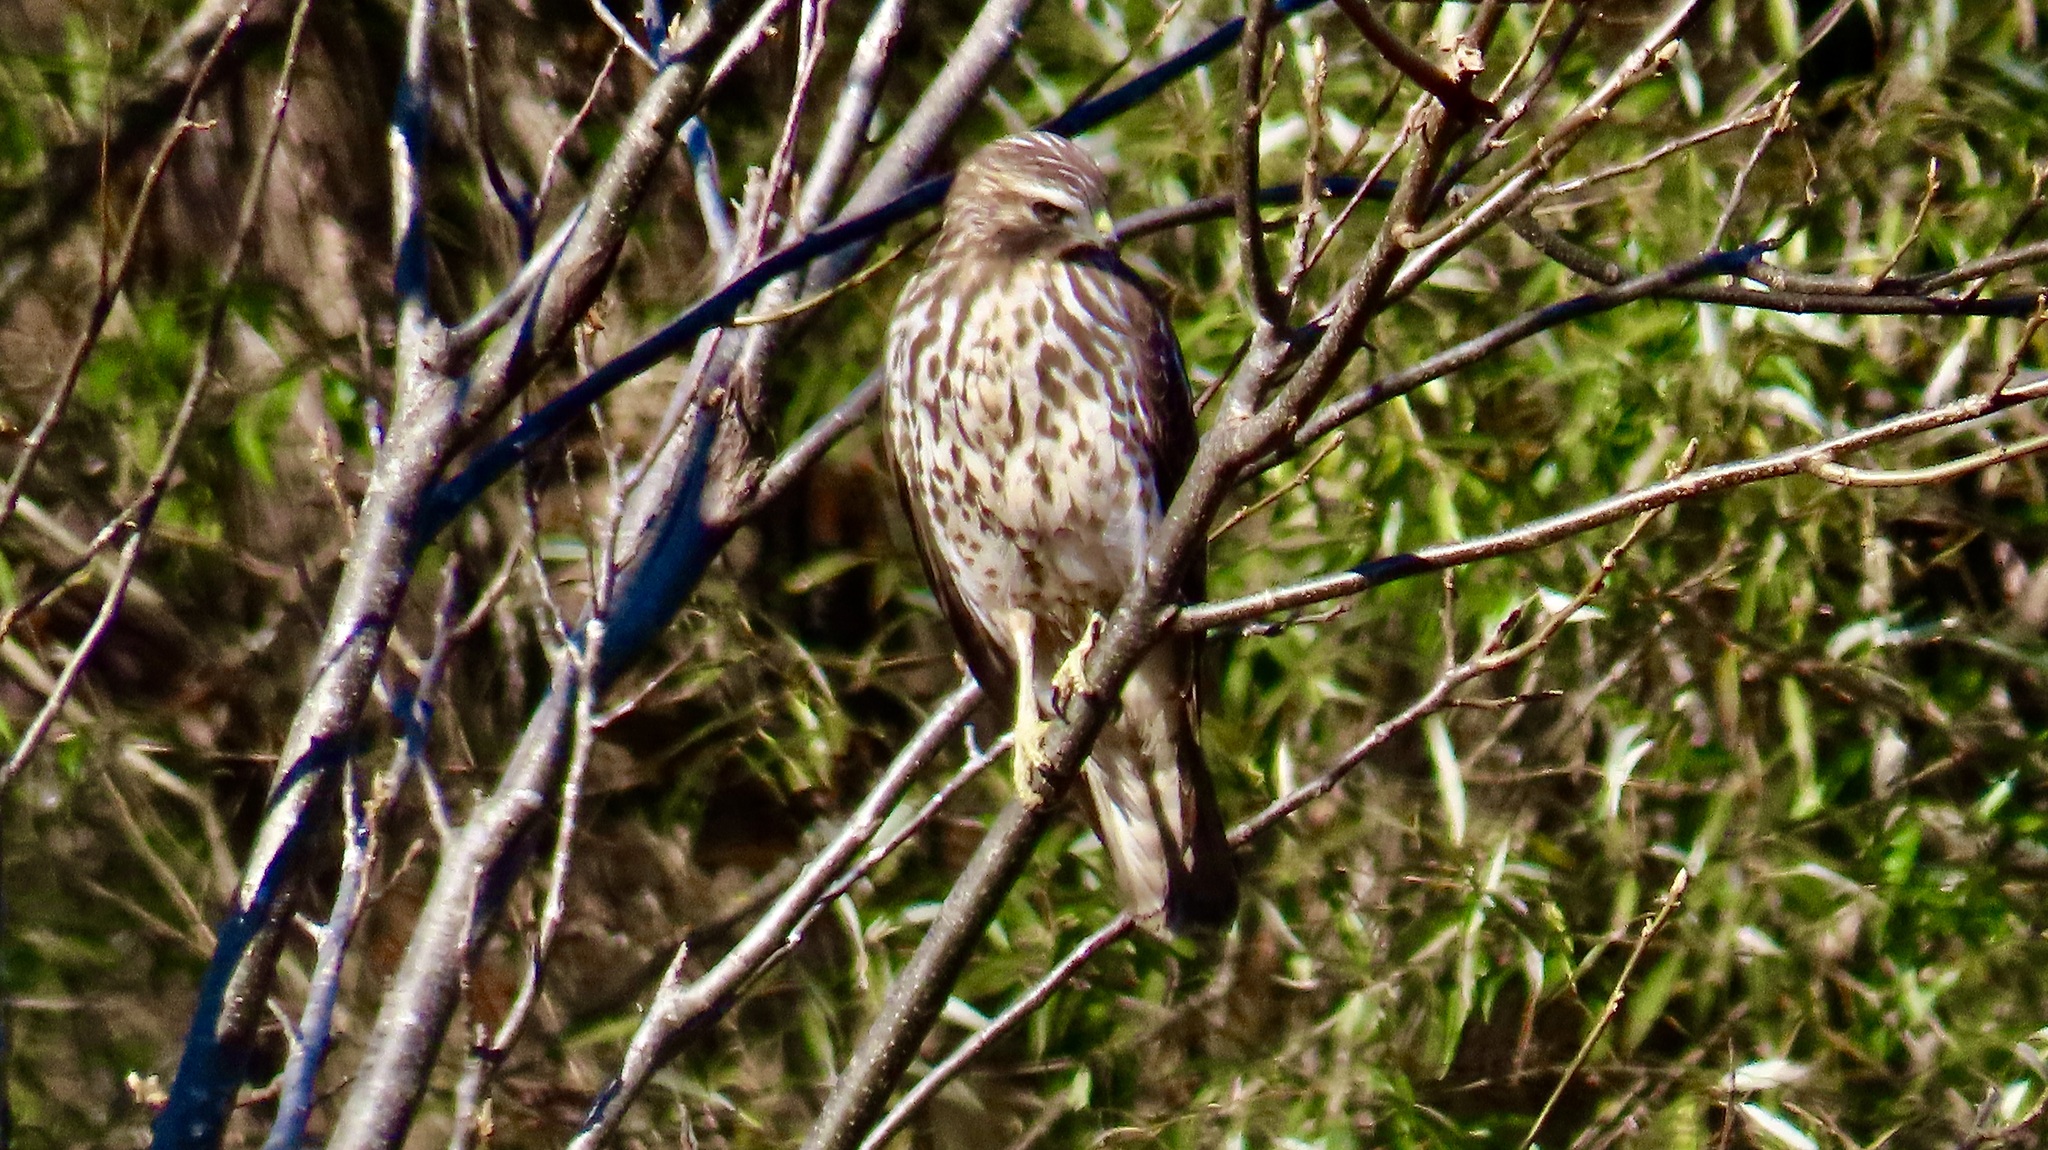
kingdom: Animalia
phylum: Chordata
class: Aves
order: Accipitriformes
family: Accipitridae
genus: Buteo
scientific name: Buteo lineatus
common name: Red-shouldered hawk
